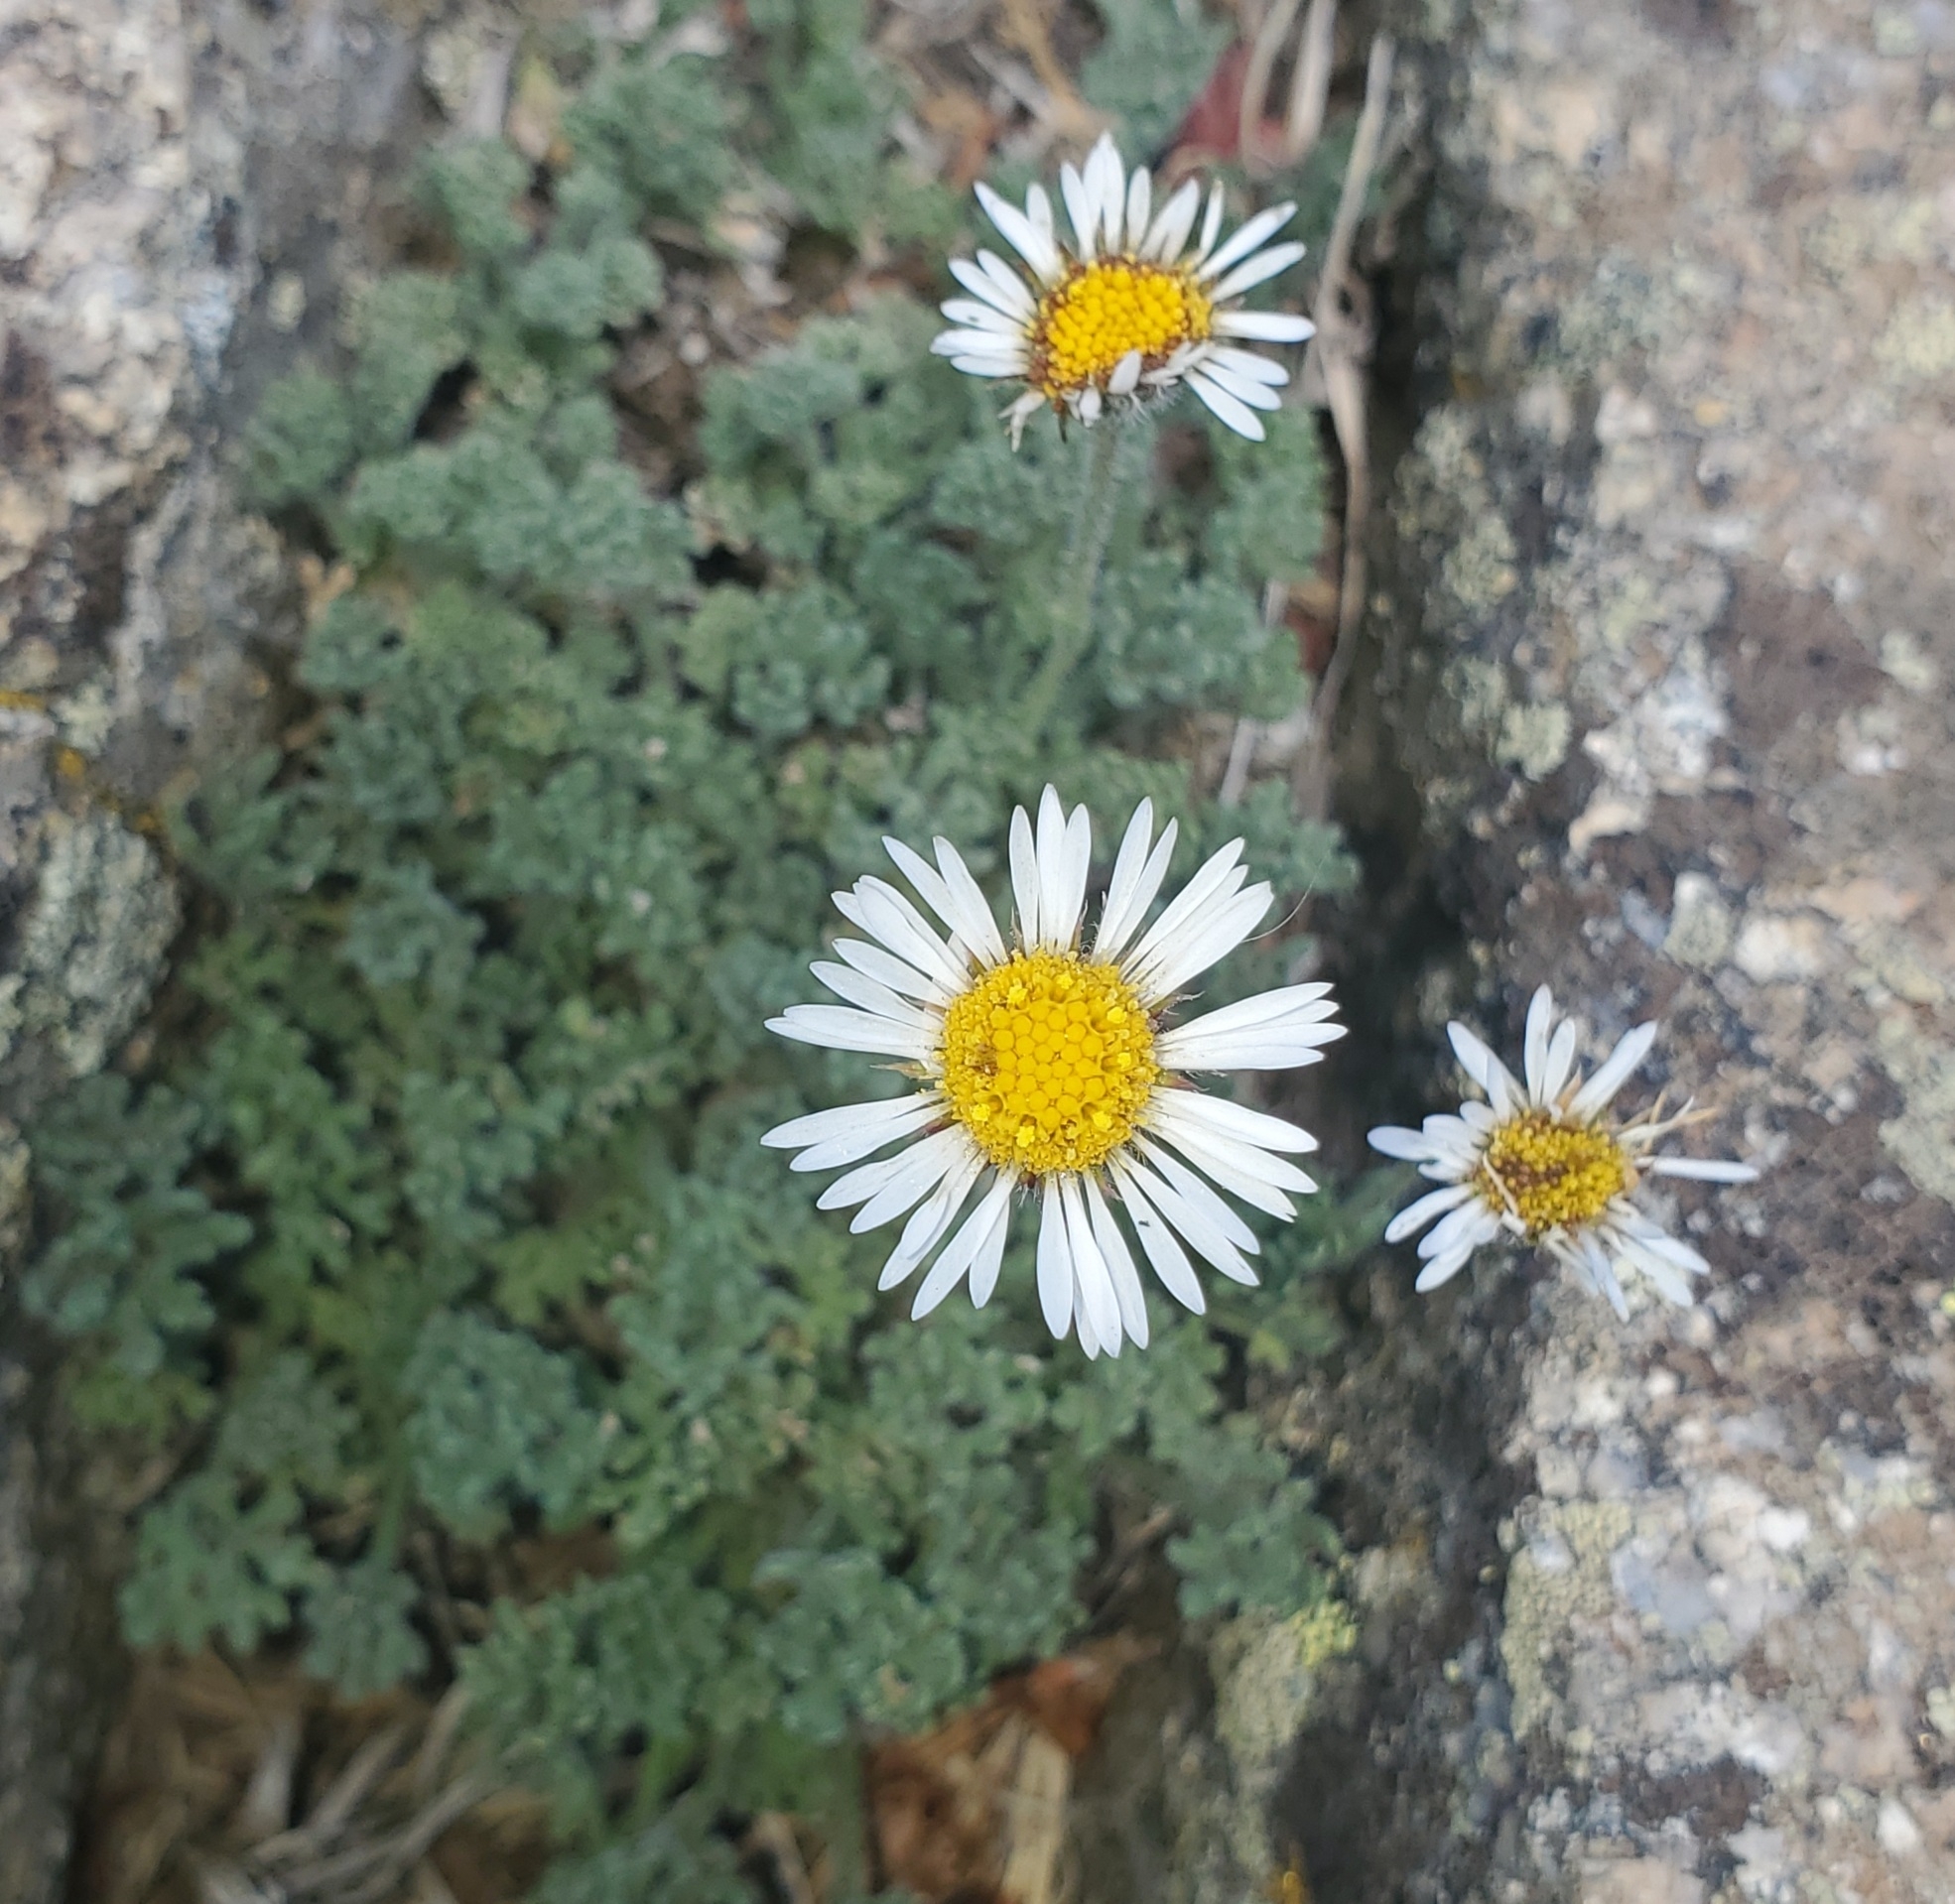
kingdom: Plantae
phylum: Tracheophyta
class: Magnoliopsida
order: Asterales
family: Asteraceae
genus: Erigeron
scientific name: Erigeron compositus
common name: Dwarf mountain fleabane
